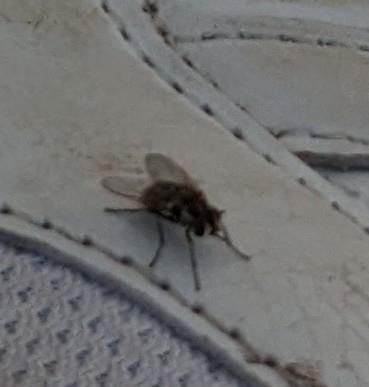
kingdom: Animalia
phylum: Arthropoda
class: Insecta
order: Diptera
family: Muscidae
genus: Stomoxys
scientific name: Stomoxys calcitrans
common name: Stable fly
